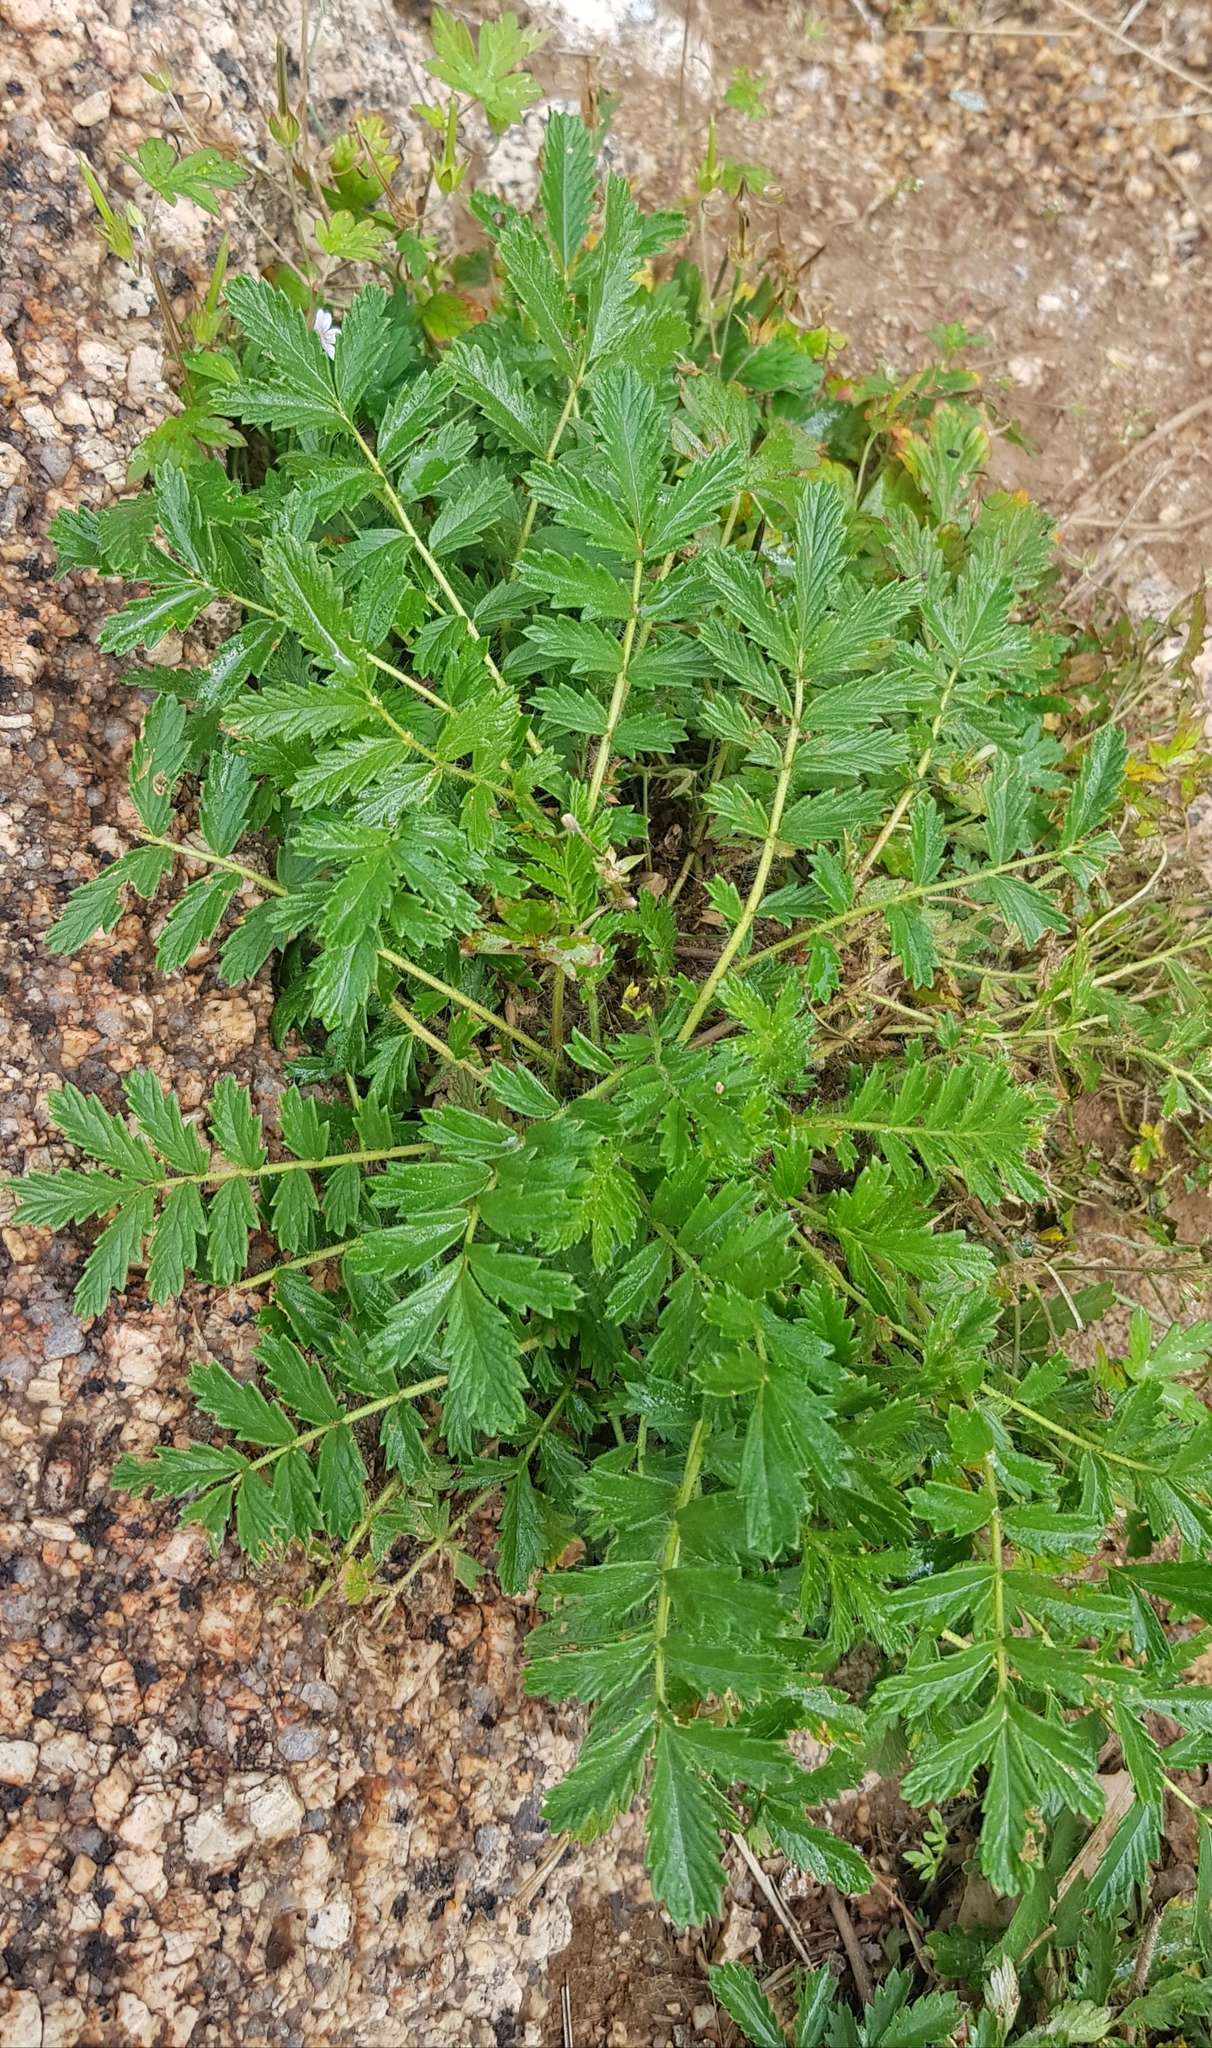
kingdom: Plantae
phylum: Tracheophyta
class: Magnoliopsida
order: Rosales
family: Rosaceae
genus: Potentilla
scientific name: Potentilla supina
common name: Prostrate cinquefoil
